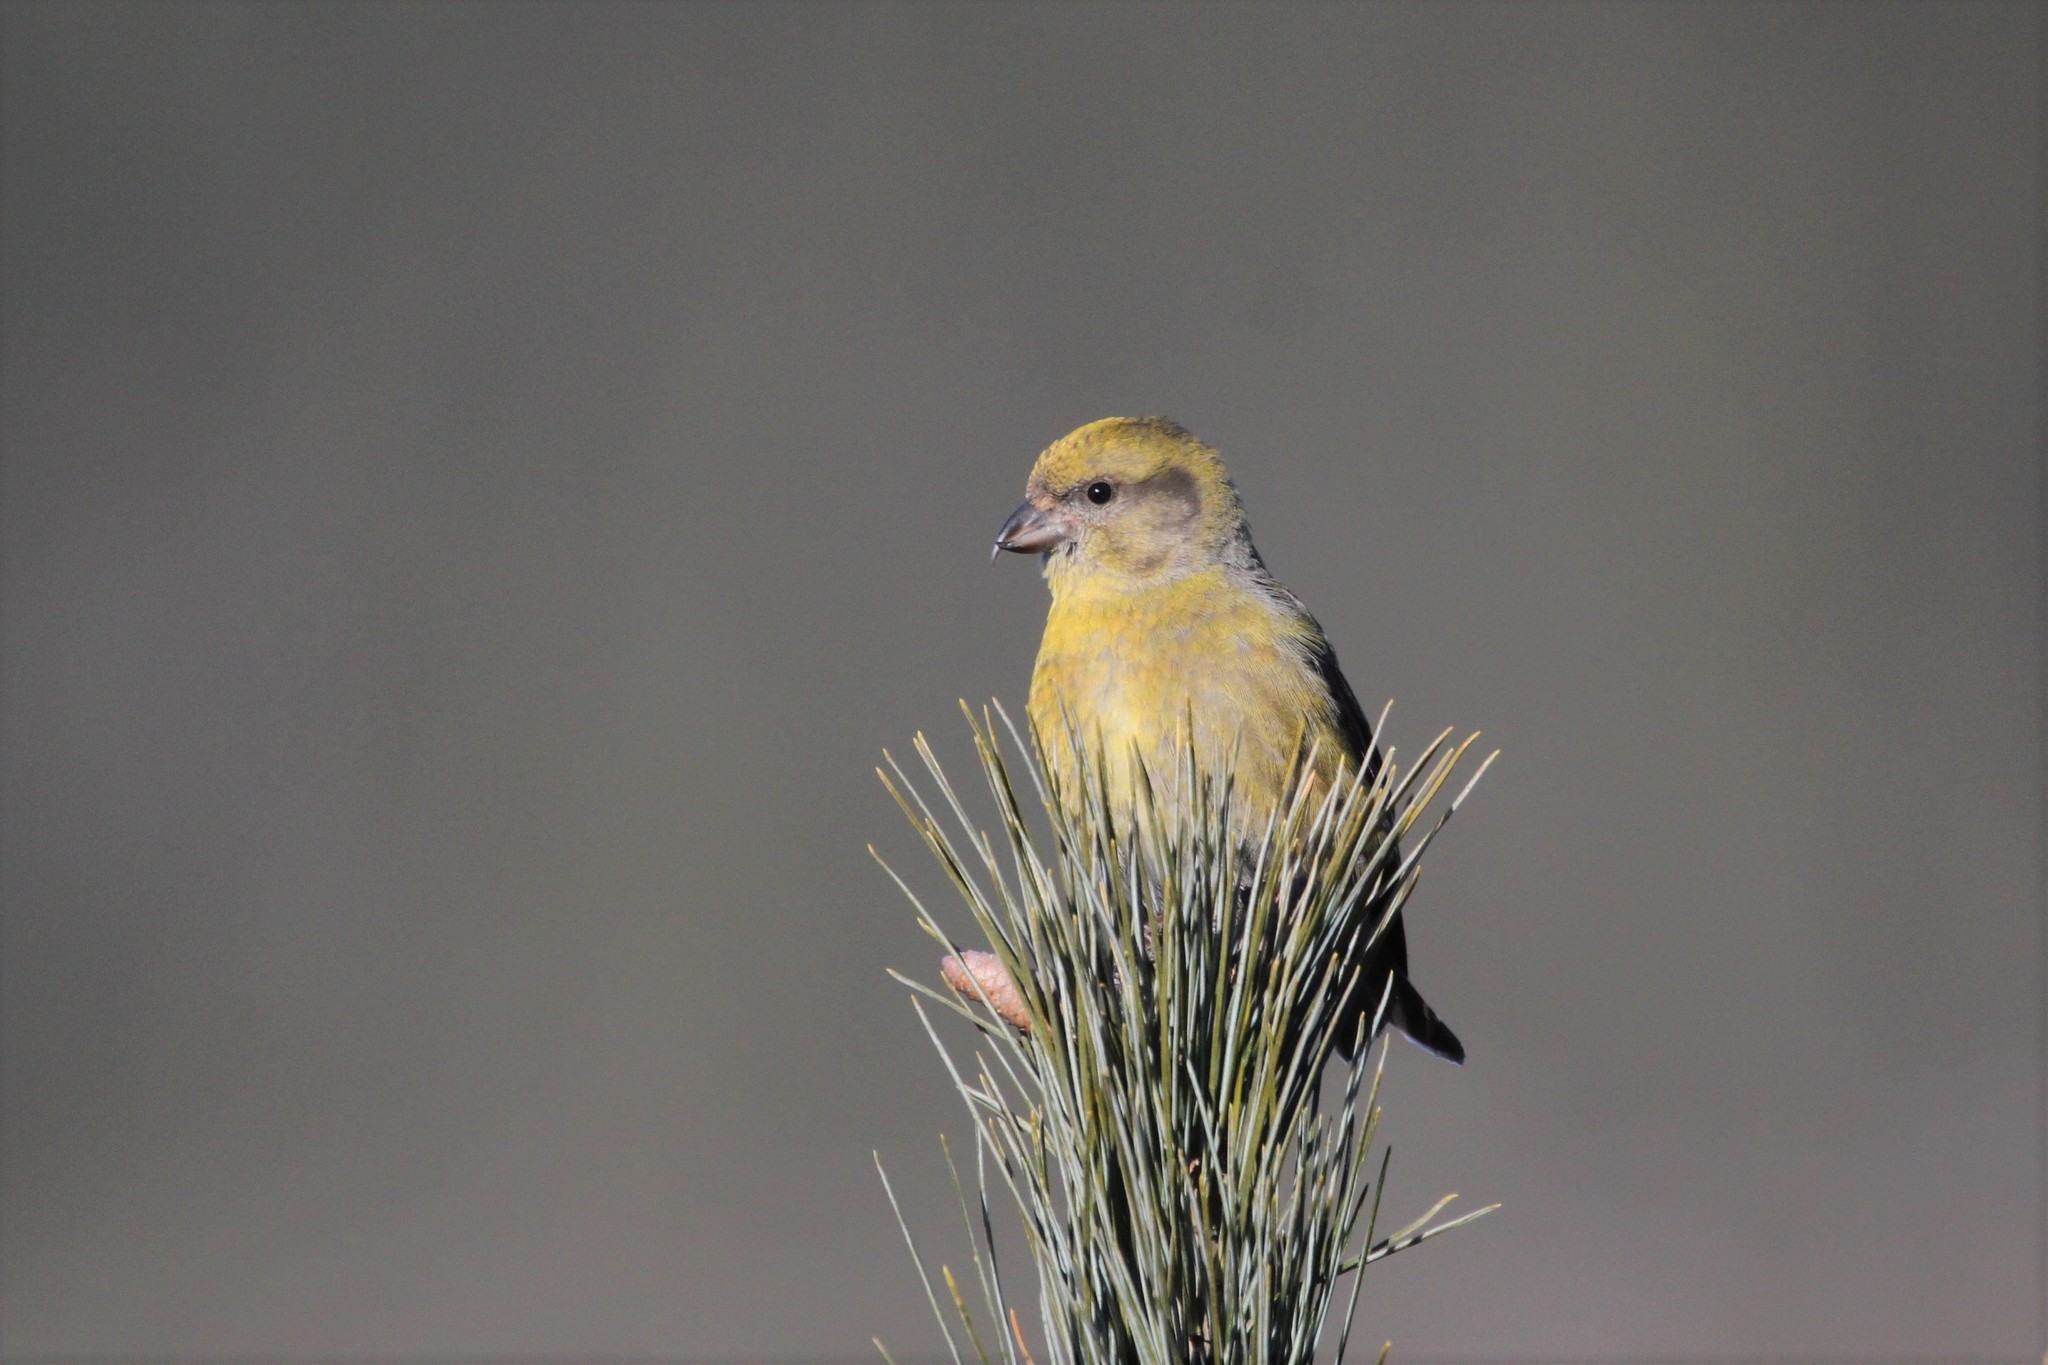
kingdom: Animalia
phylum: Chordata
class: Aves
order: Passeriformes
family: Fringillidae
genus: Loxia
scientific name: Loxia curvirostra
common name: Red crossbill
